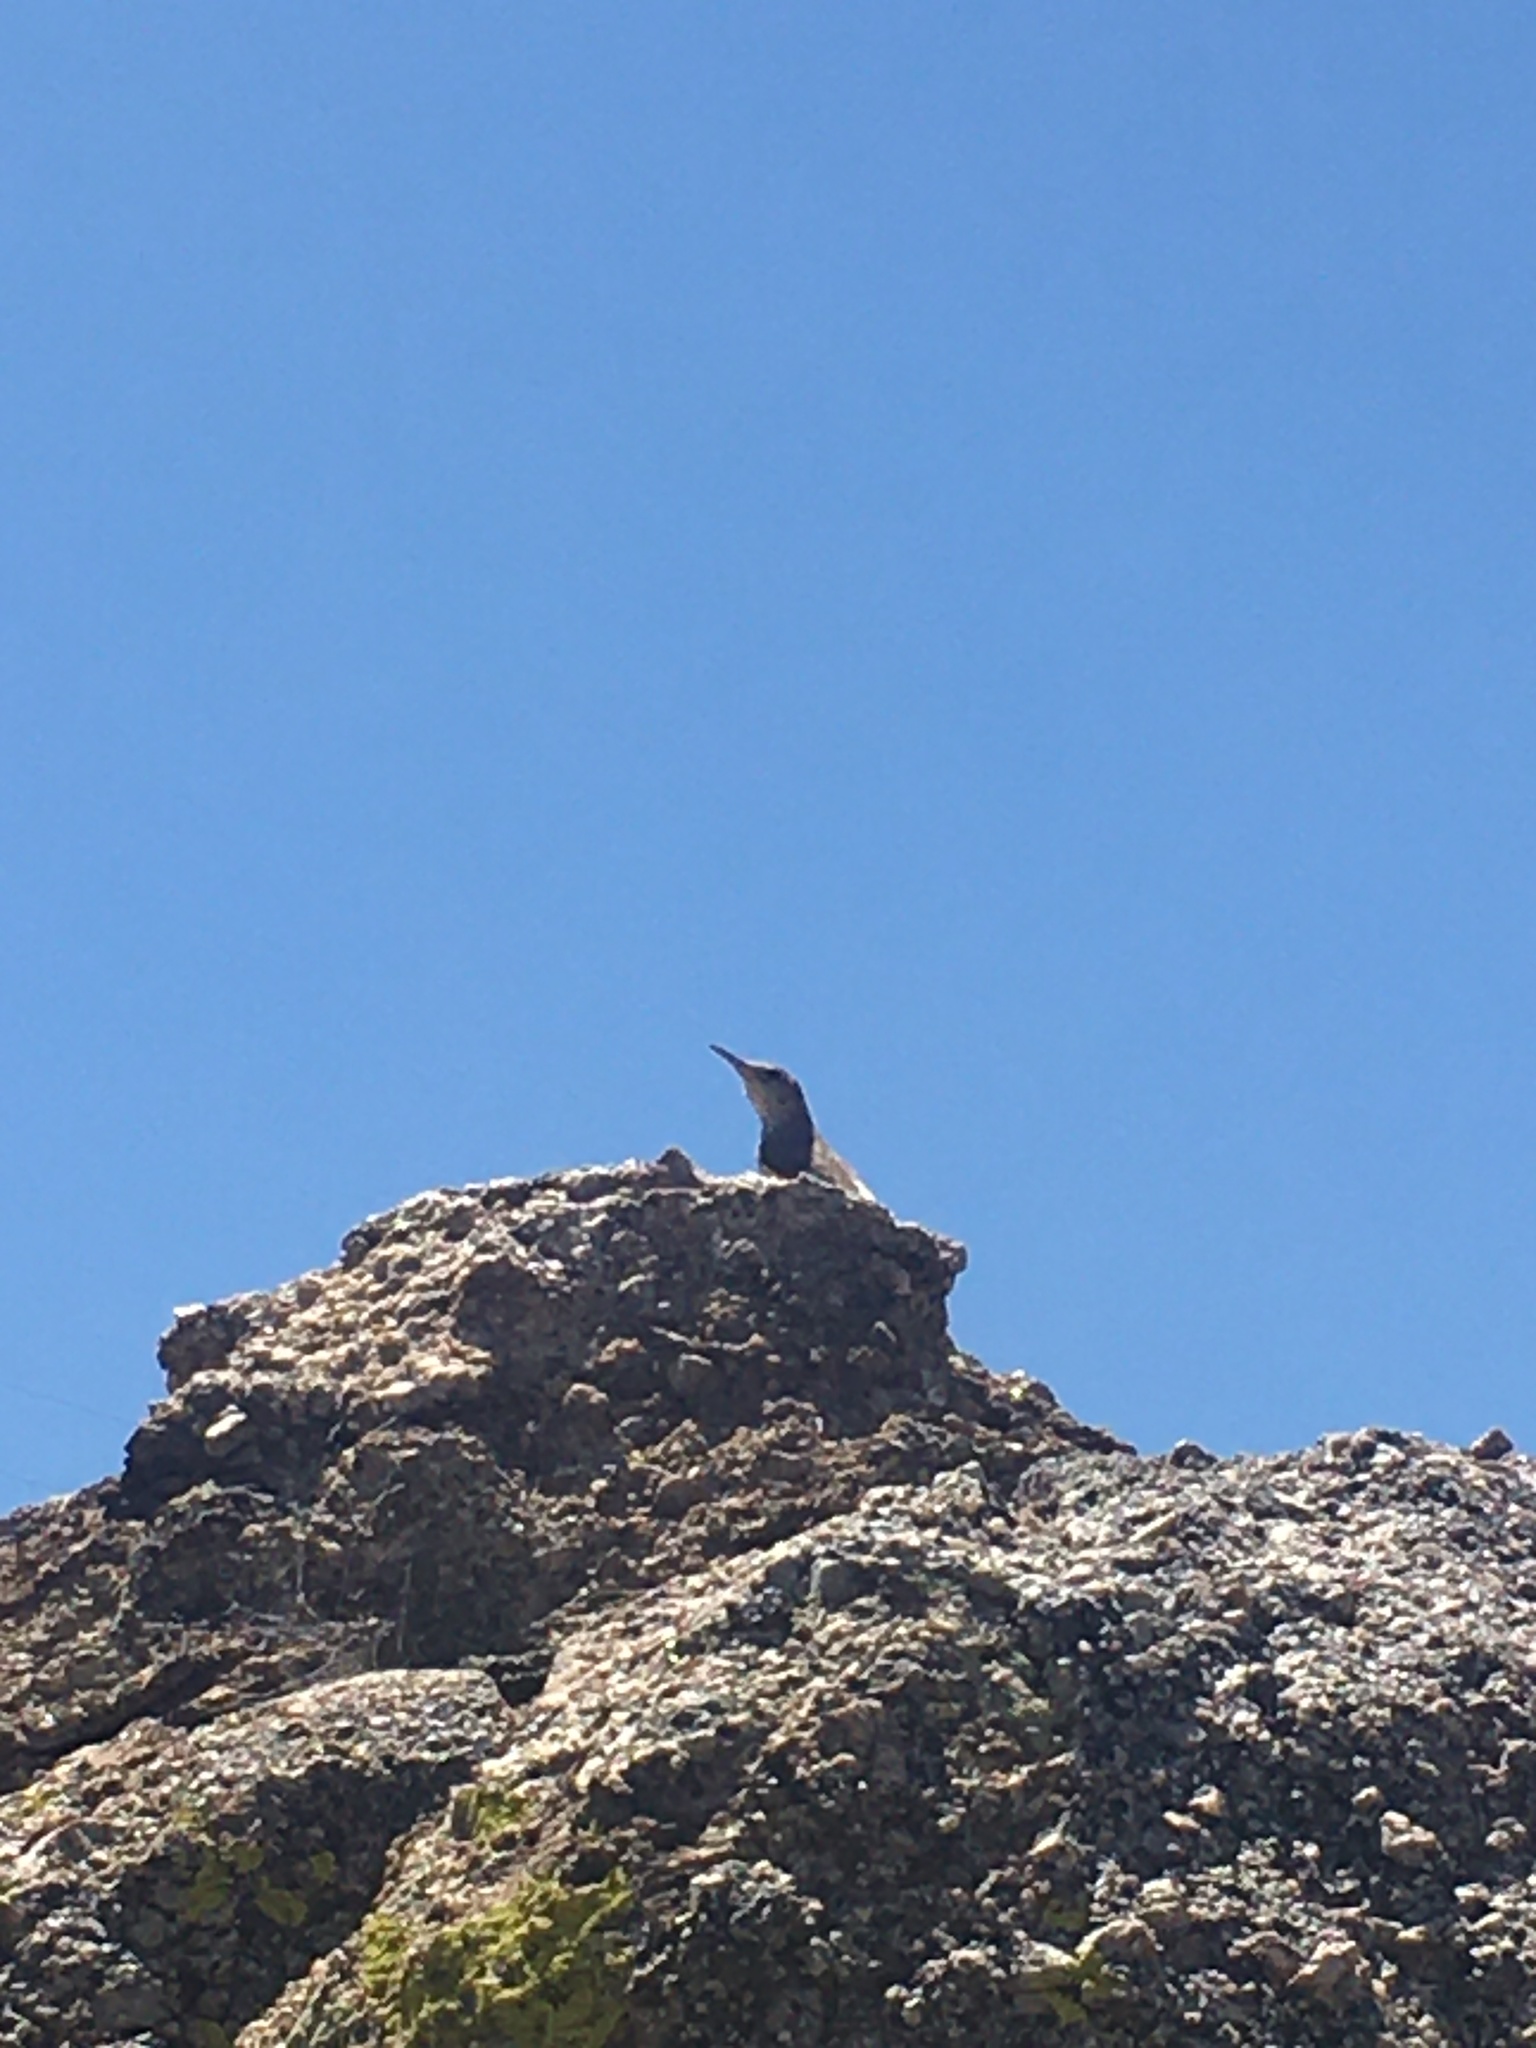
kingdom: Animalia
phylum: Chordata
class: Aves
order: Passeriformes
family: Troglodytidae
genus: Salpinctes
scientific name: Salpinctes obsoletus
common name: Rock wren
